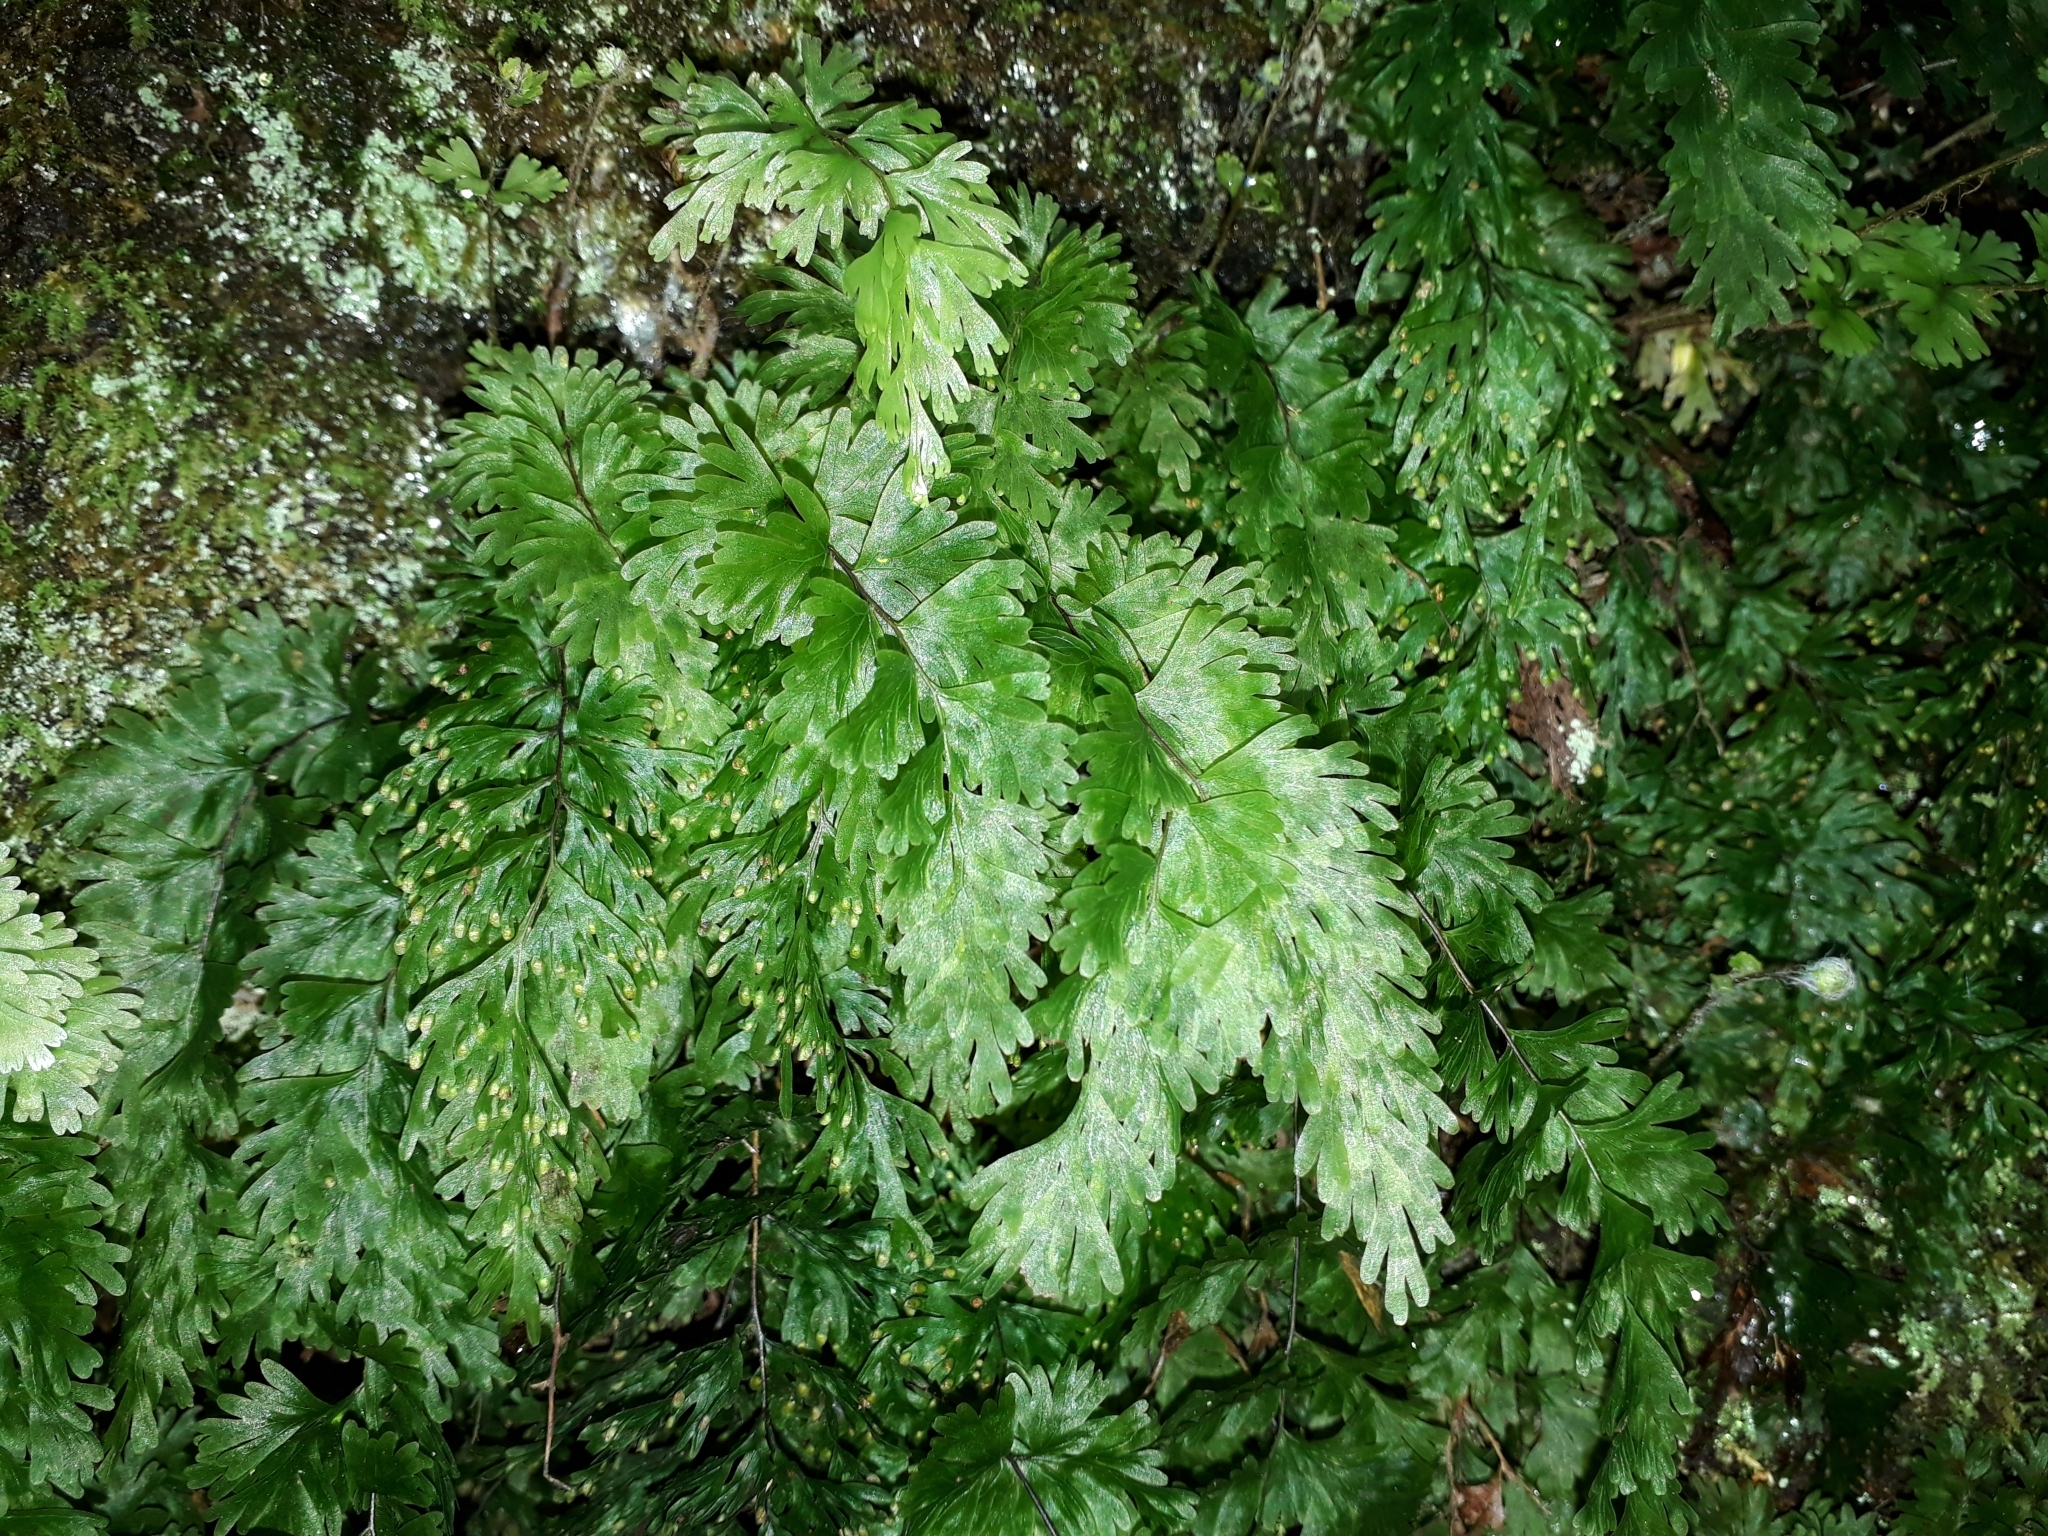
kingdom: Plantae
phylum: Tracheophyta
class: Polypodiopsida
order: Hymenophyllales
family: Hymenophyllaceae
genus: Hymenophyllum
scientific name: Hymenophyllum flabellatum
